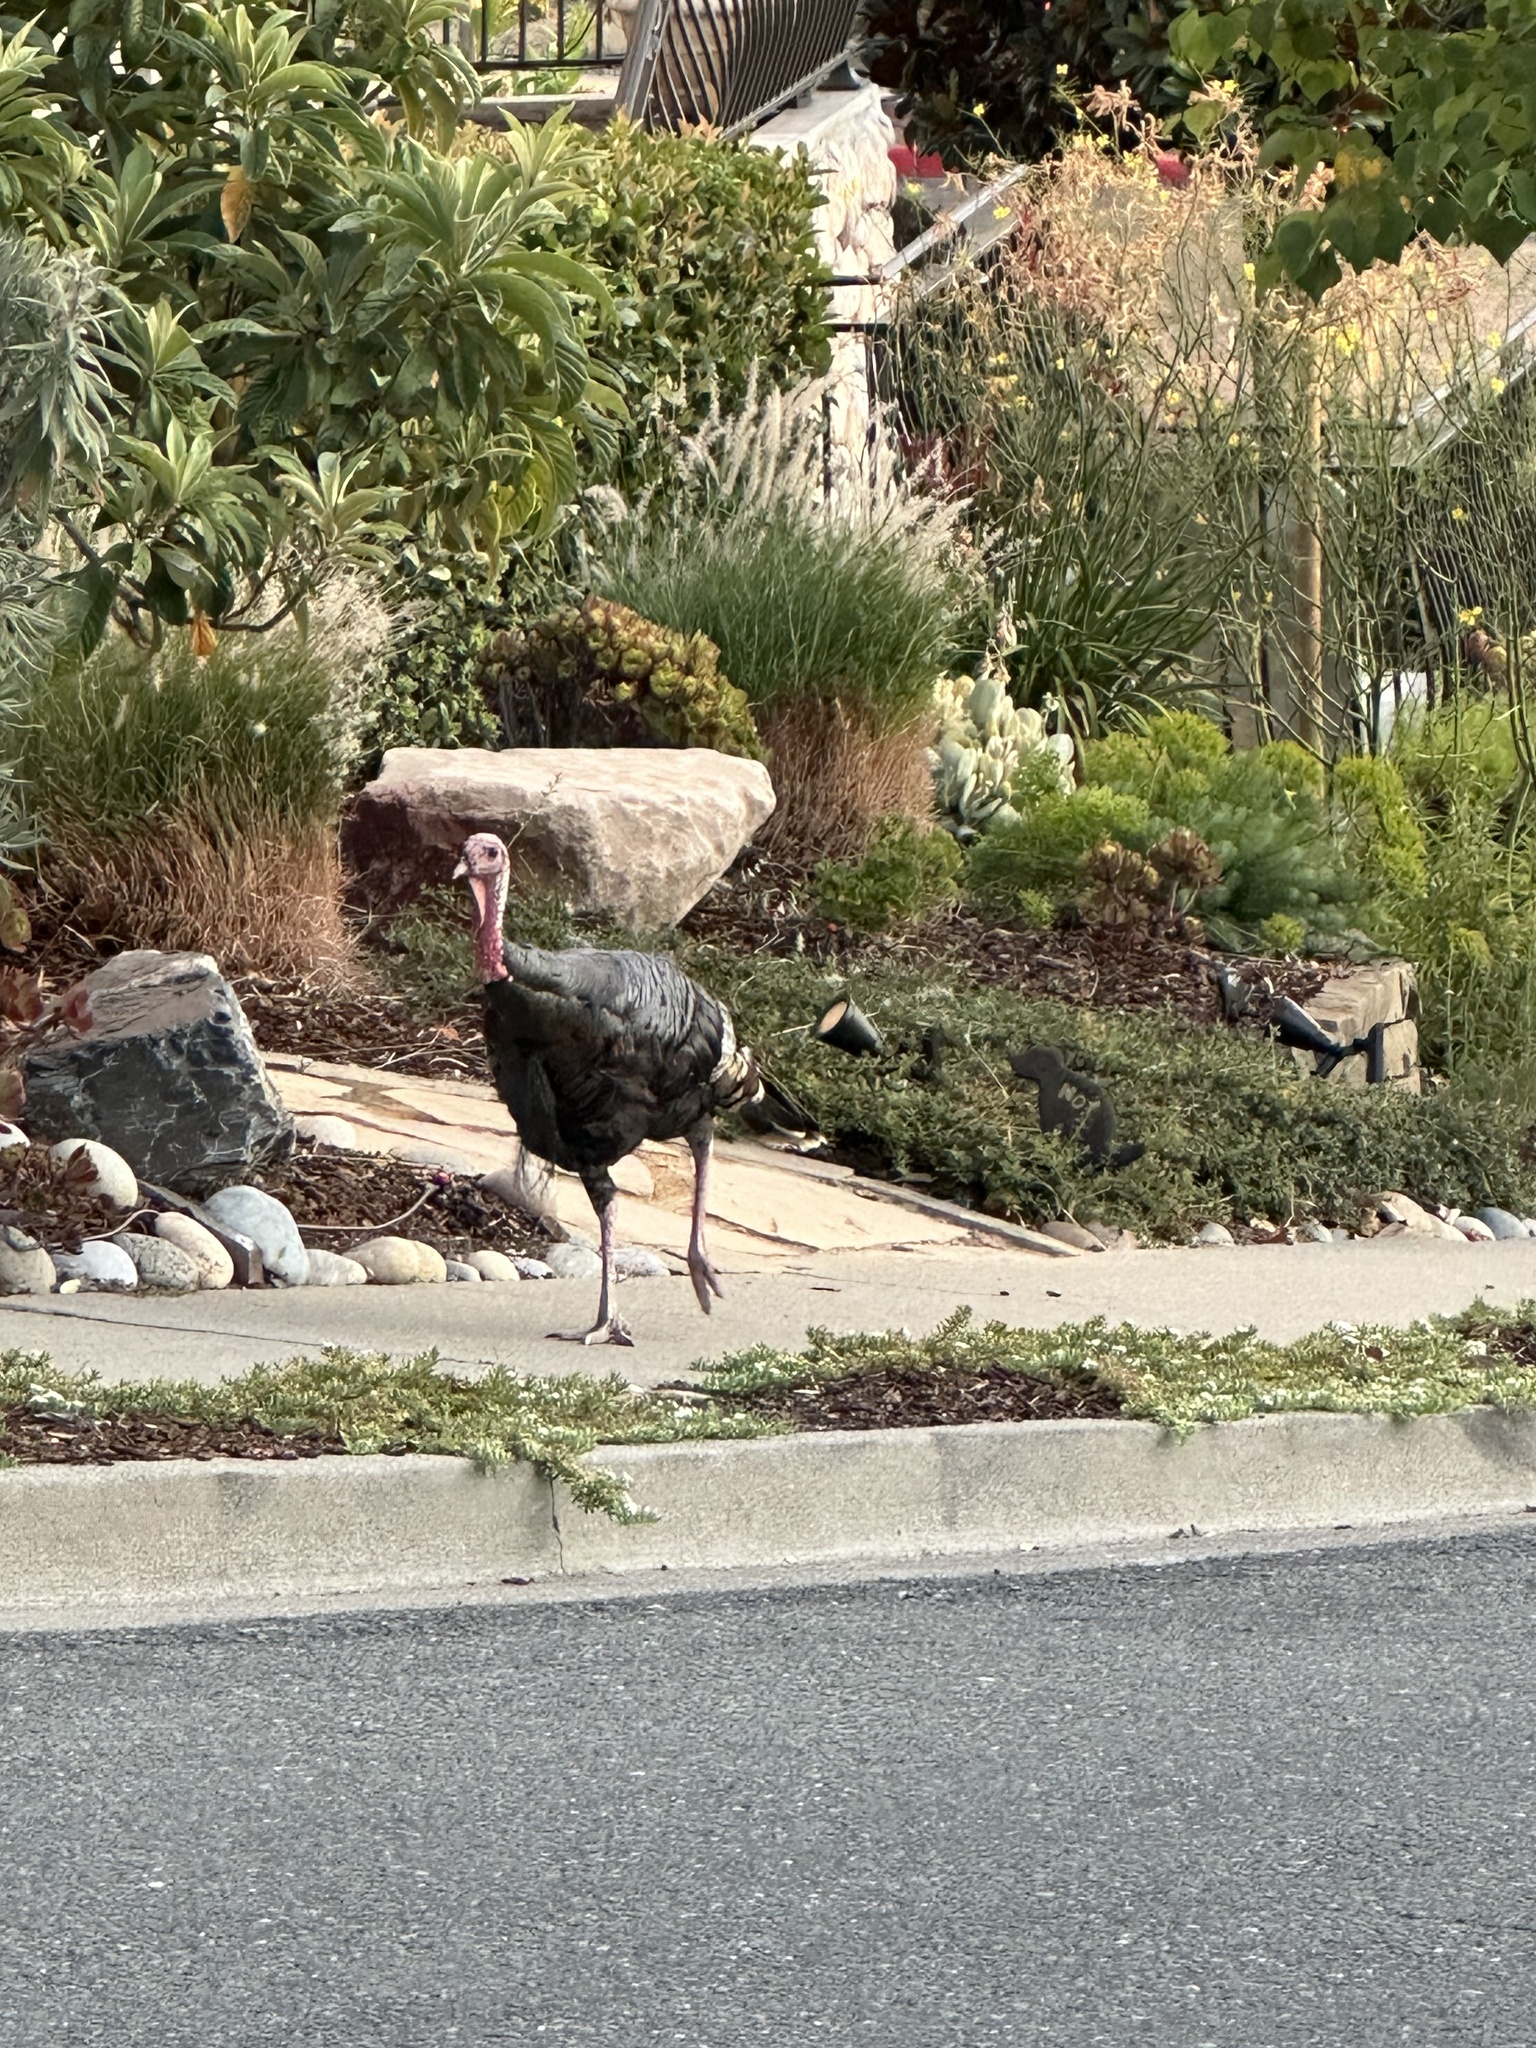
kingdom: Animalia
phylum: Chordata
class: Aves
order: Galliformes
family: Phasianidae
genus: Meleagris
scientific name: Meleagris gallopavo
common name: Wild turkey
